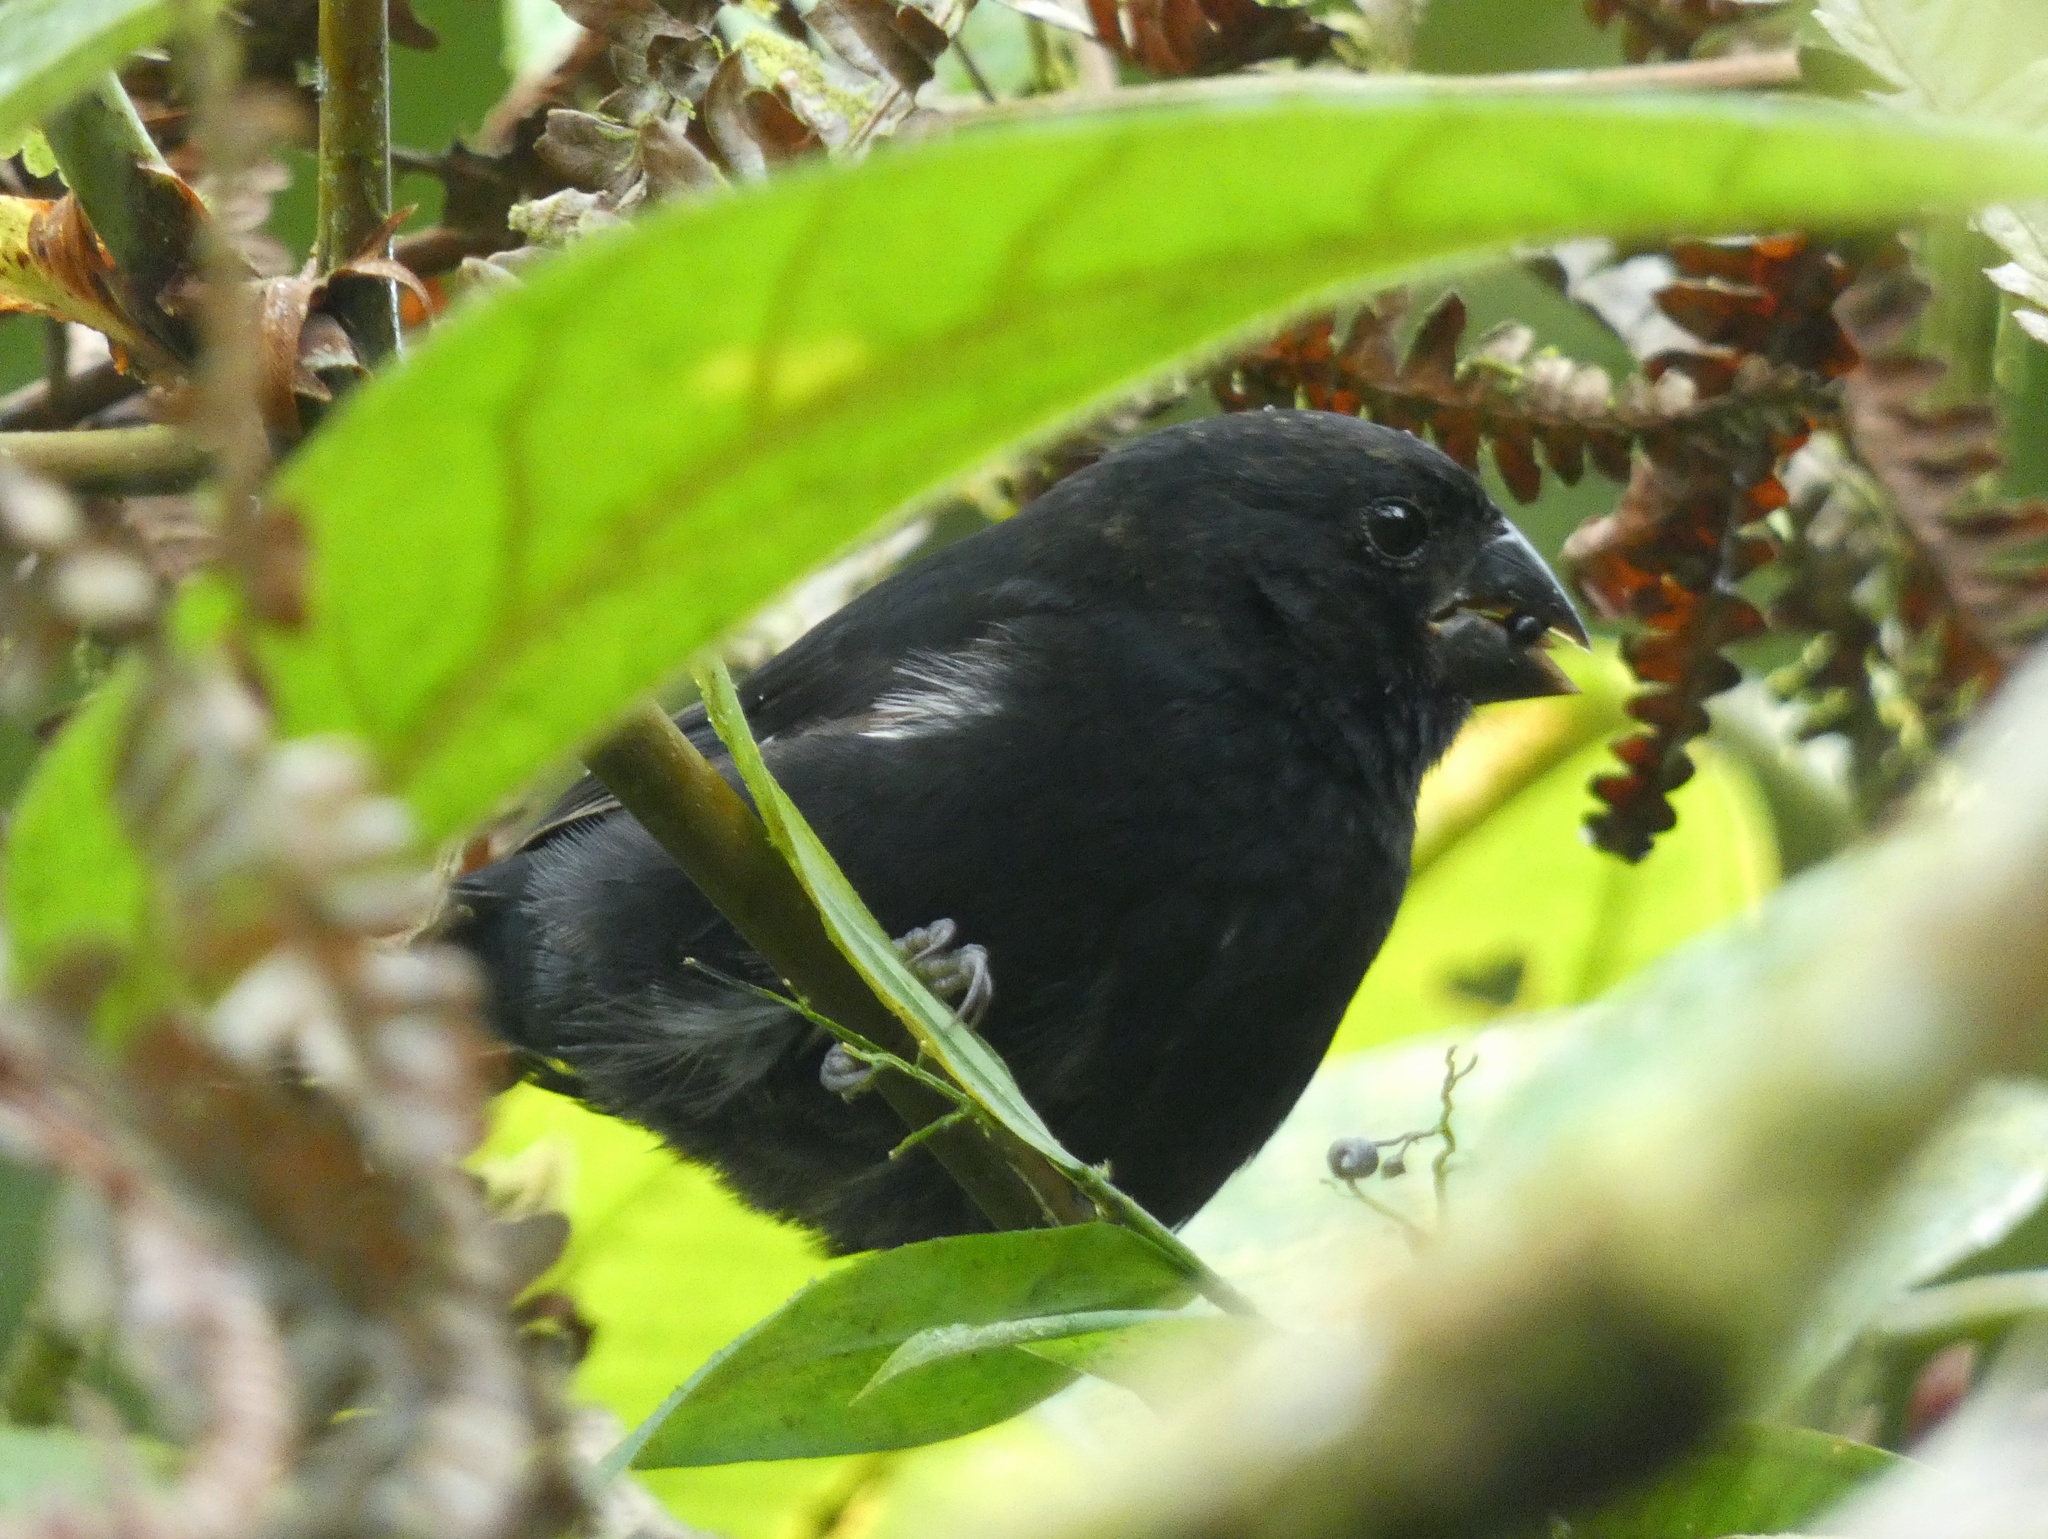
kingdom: Animalia
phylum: Chordata
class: Aves
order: Passeriformes
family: Thraupidae
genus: Sporophila
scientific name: Sporophila funerea
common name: Thick-billed seed-finch
